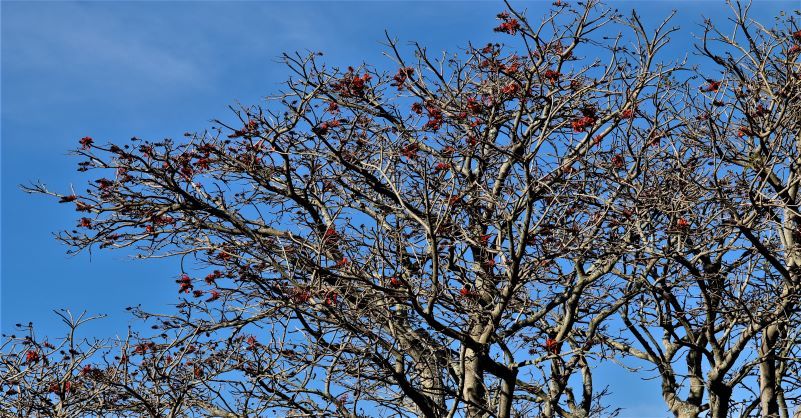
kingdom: Plantae
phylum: Tracheophyta
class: Magnoliopsida
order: Fabales
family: Fabaceae
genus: Erythrina
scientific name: Erythrina caffra
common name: Coast coral tree
